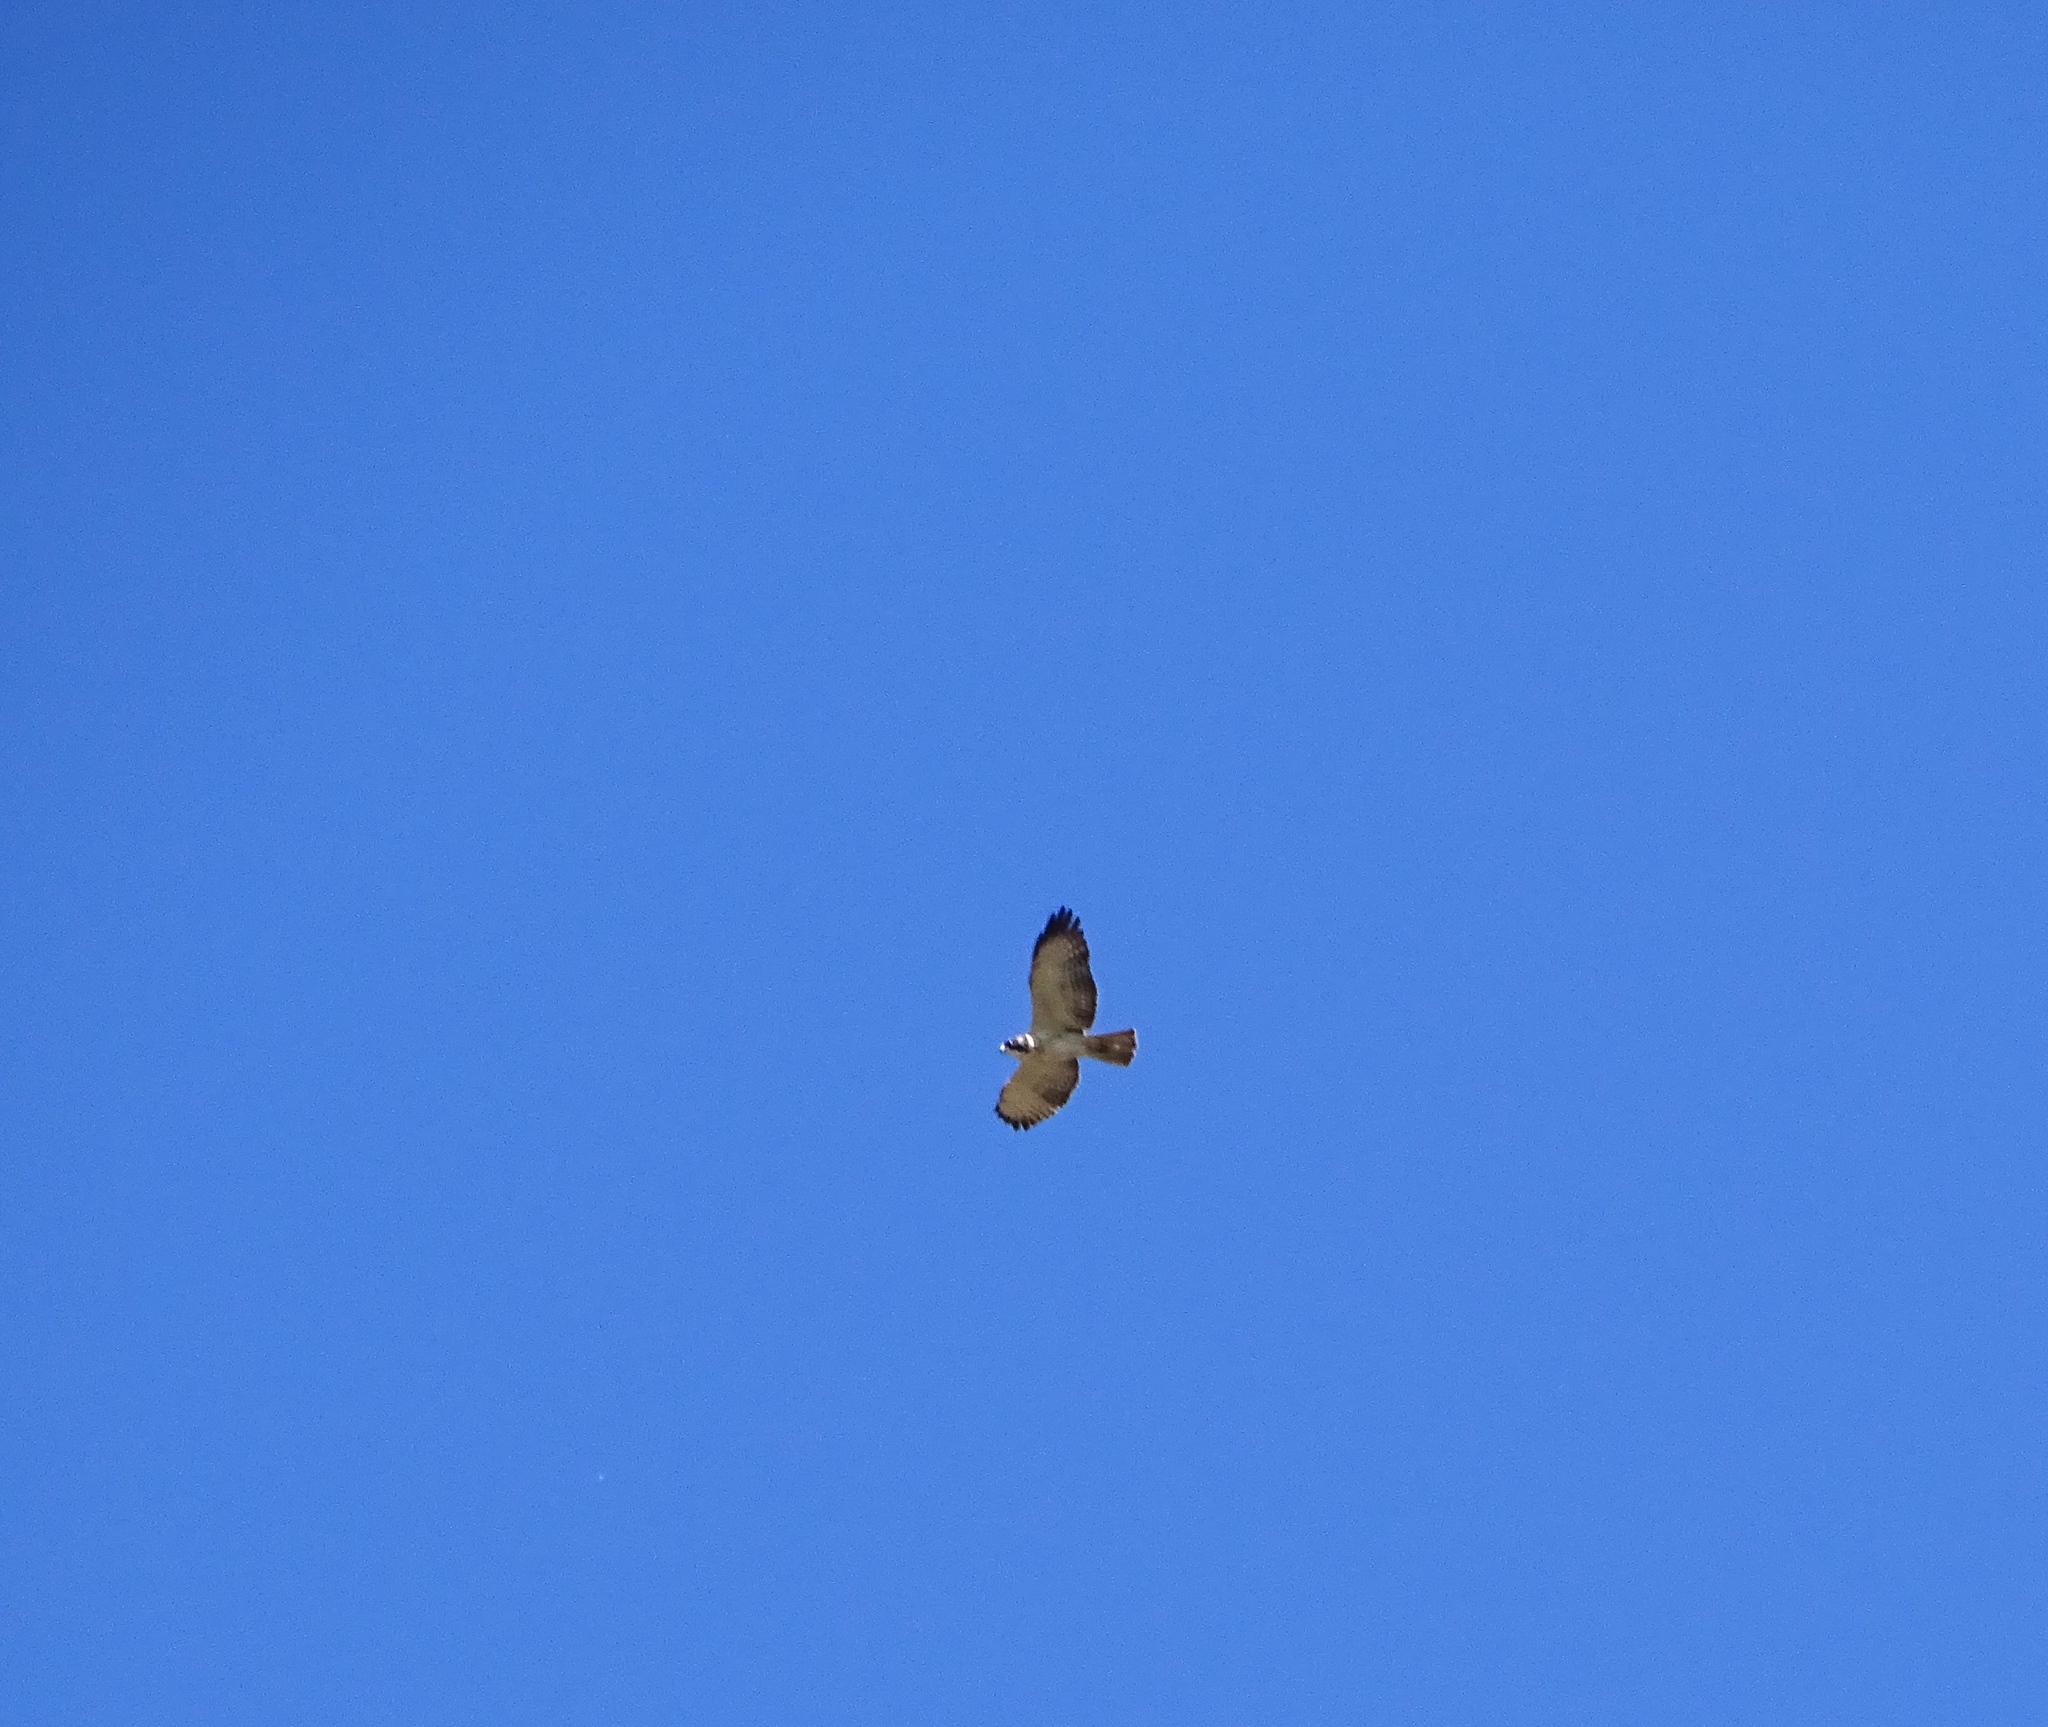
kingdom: Animalia
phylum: Chordata
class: Aves
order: Accipitriformes
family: Accipitridae
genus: Buteo
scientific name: Buteo brachyurus
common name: Short-tailed hawk
